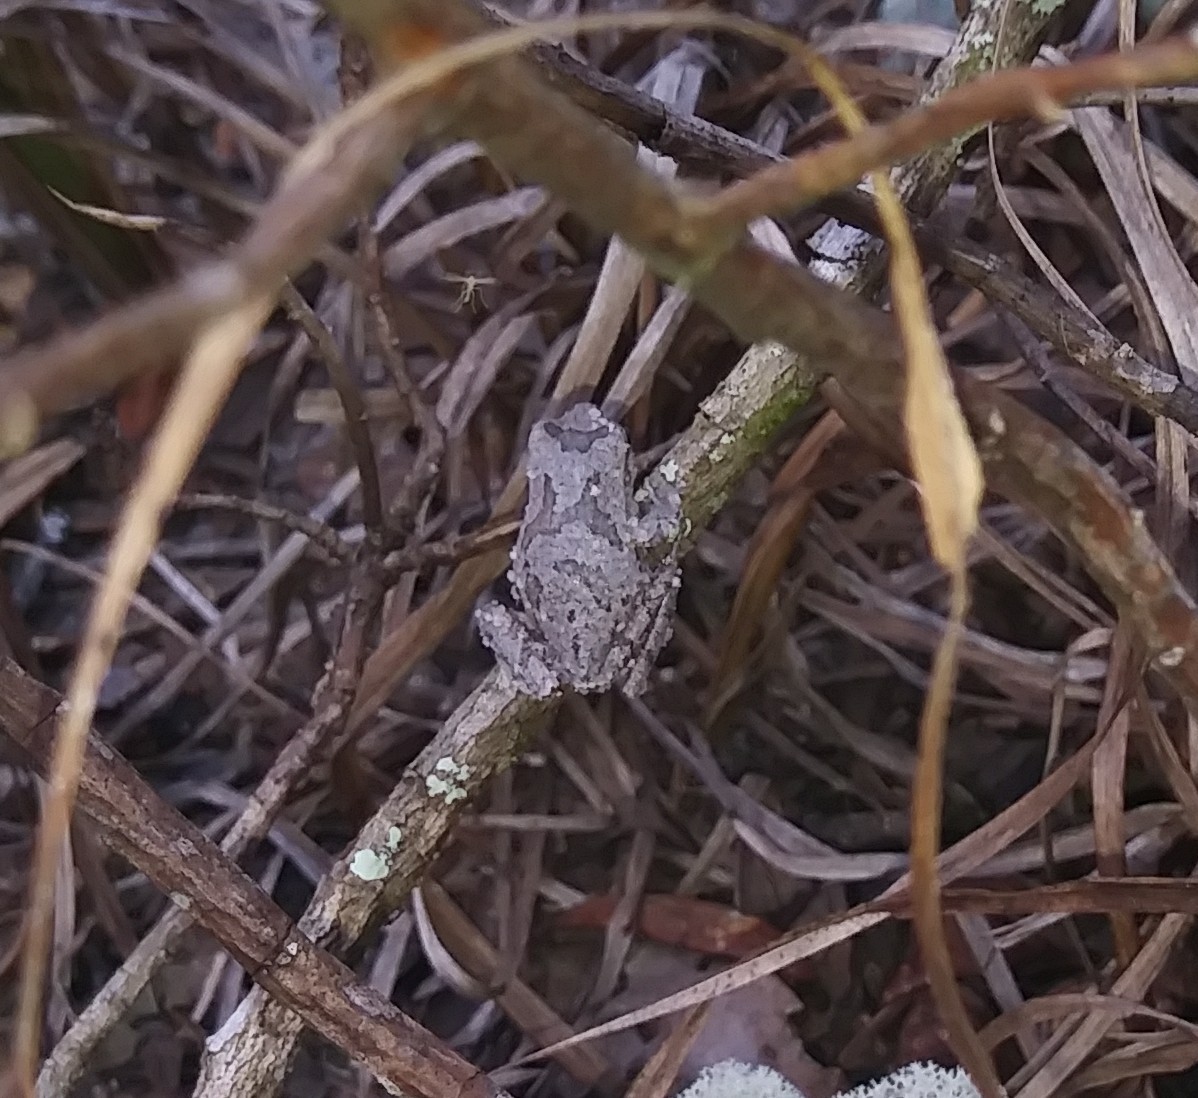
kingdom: Animalia
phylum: Chordata
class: Amphibia
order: Anura
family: Hylidae
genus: Hyla
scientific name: Hyla femoralis
